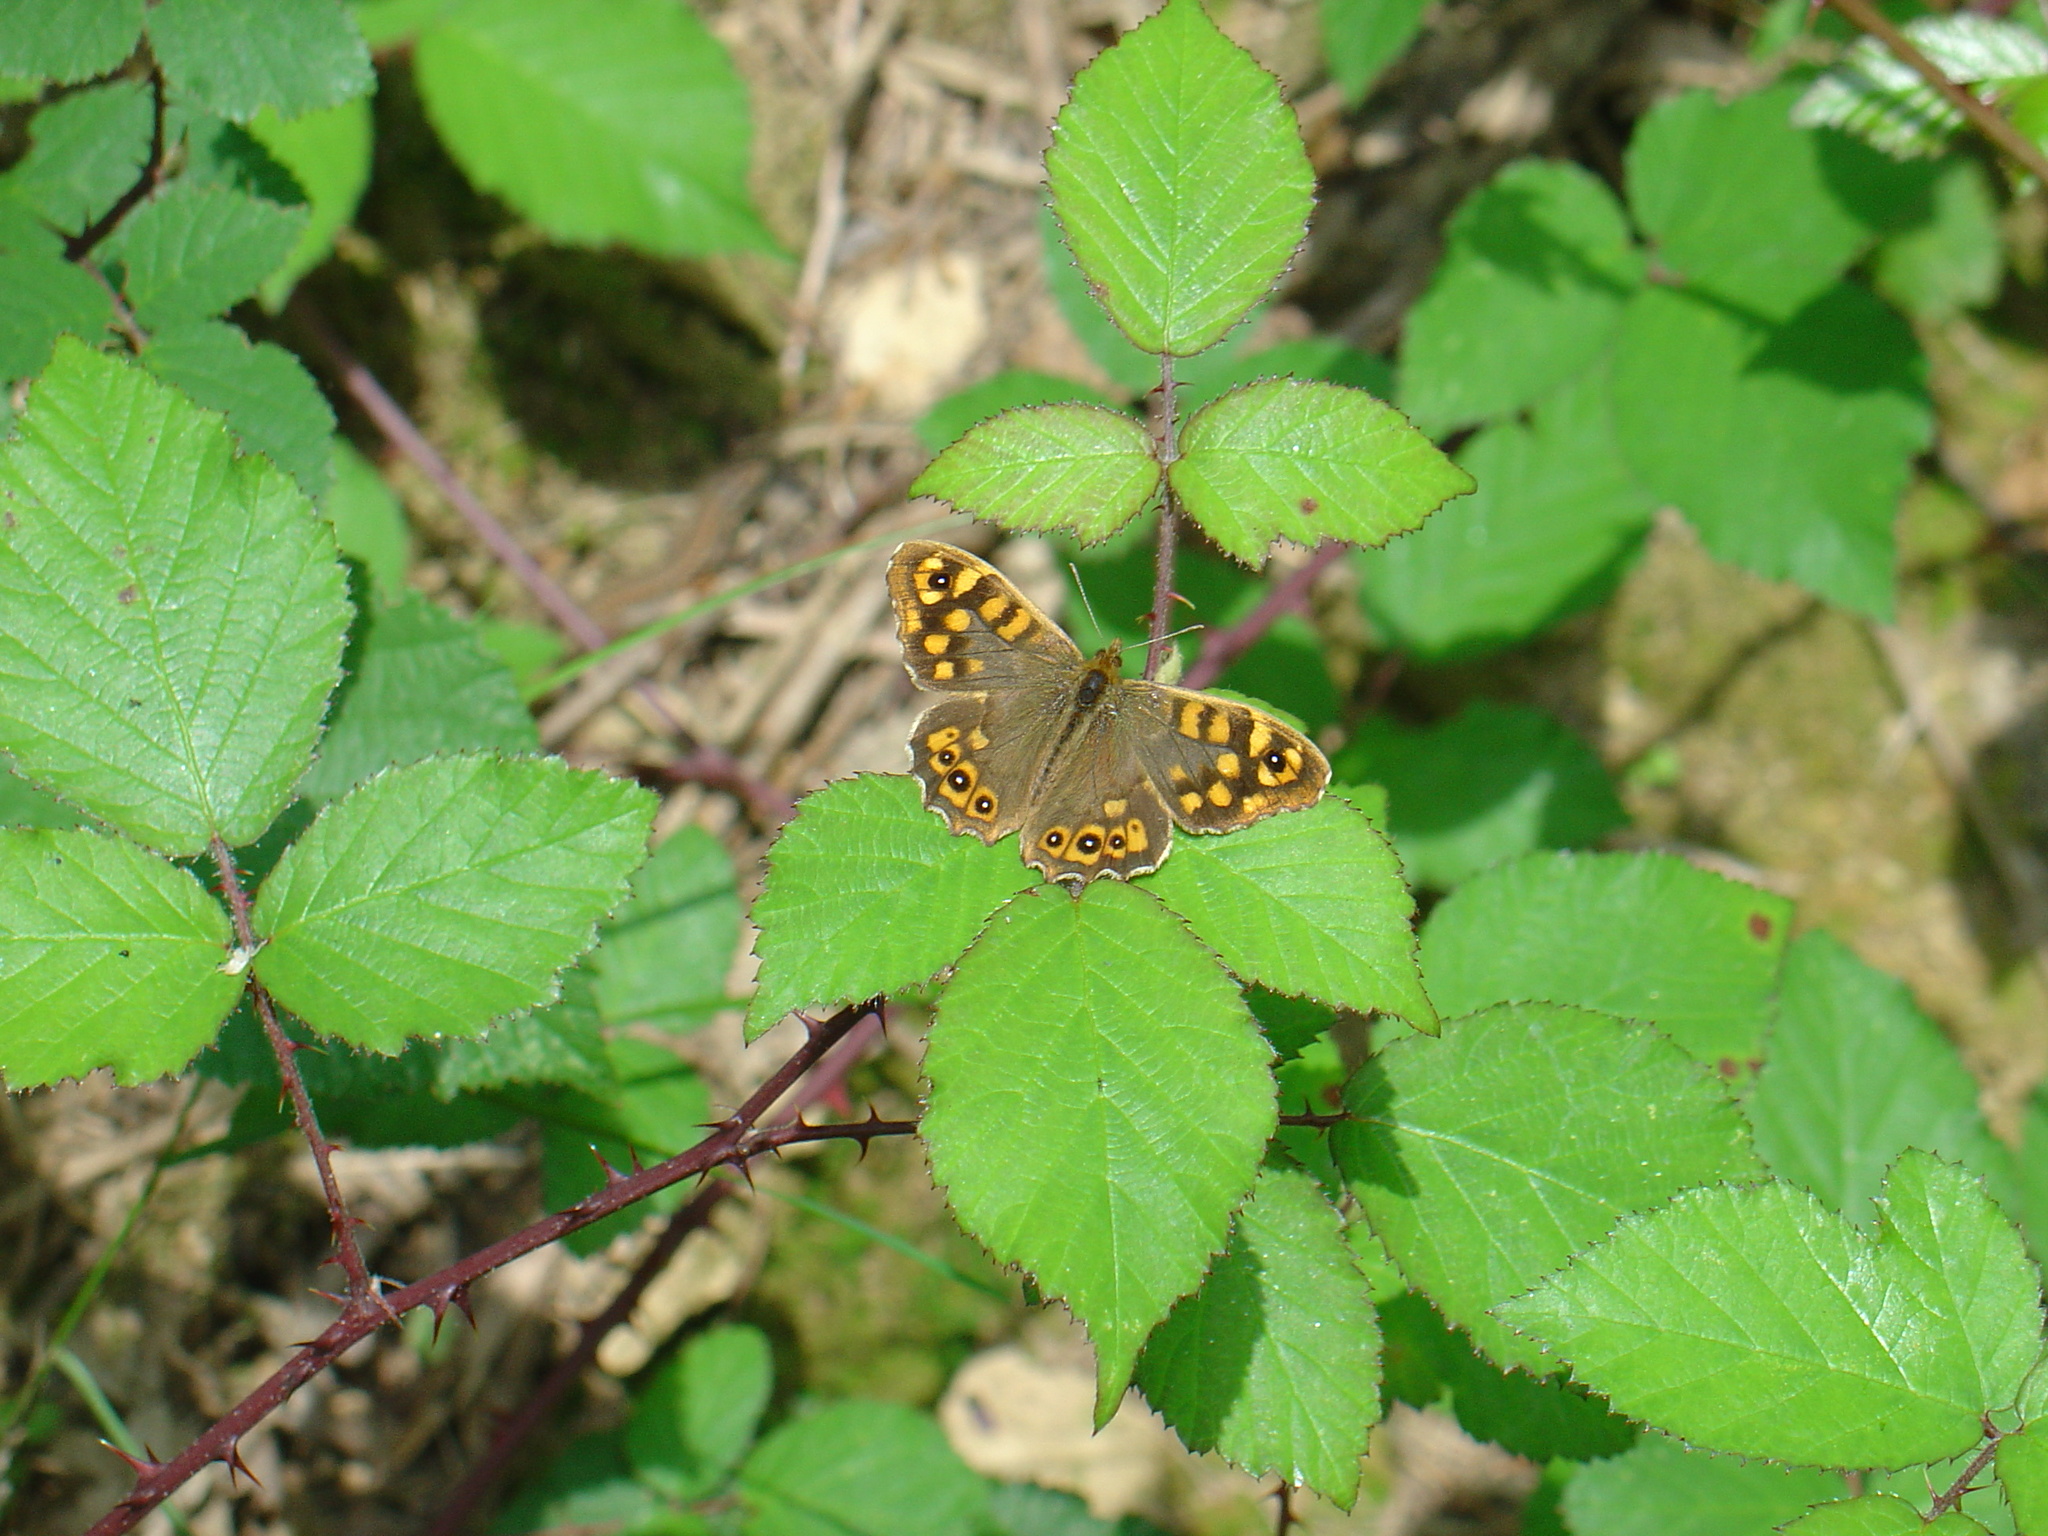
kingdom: Animalia
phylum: Arthropoda
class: Insecta
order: Lepidoptera
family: Nymphalidae
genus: Pararge
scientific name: Pararge aegeria
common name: Speckled wood
